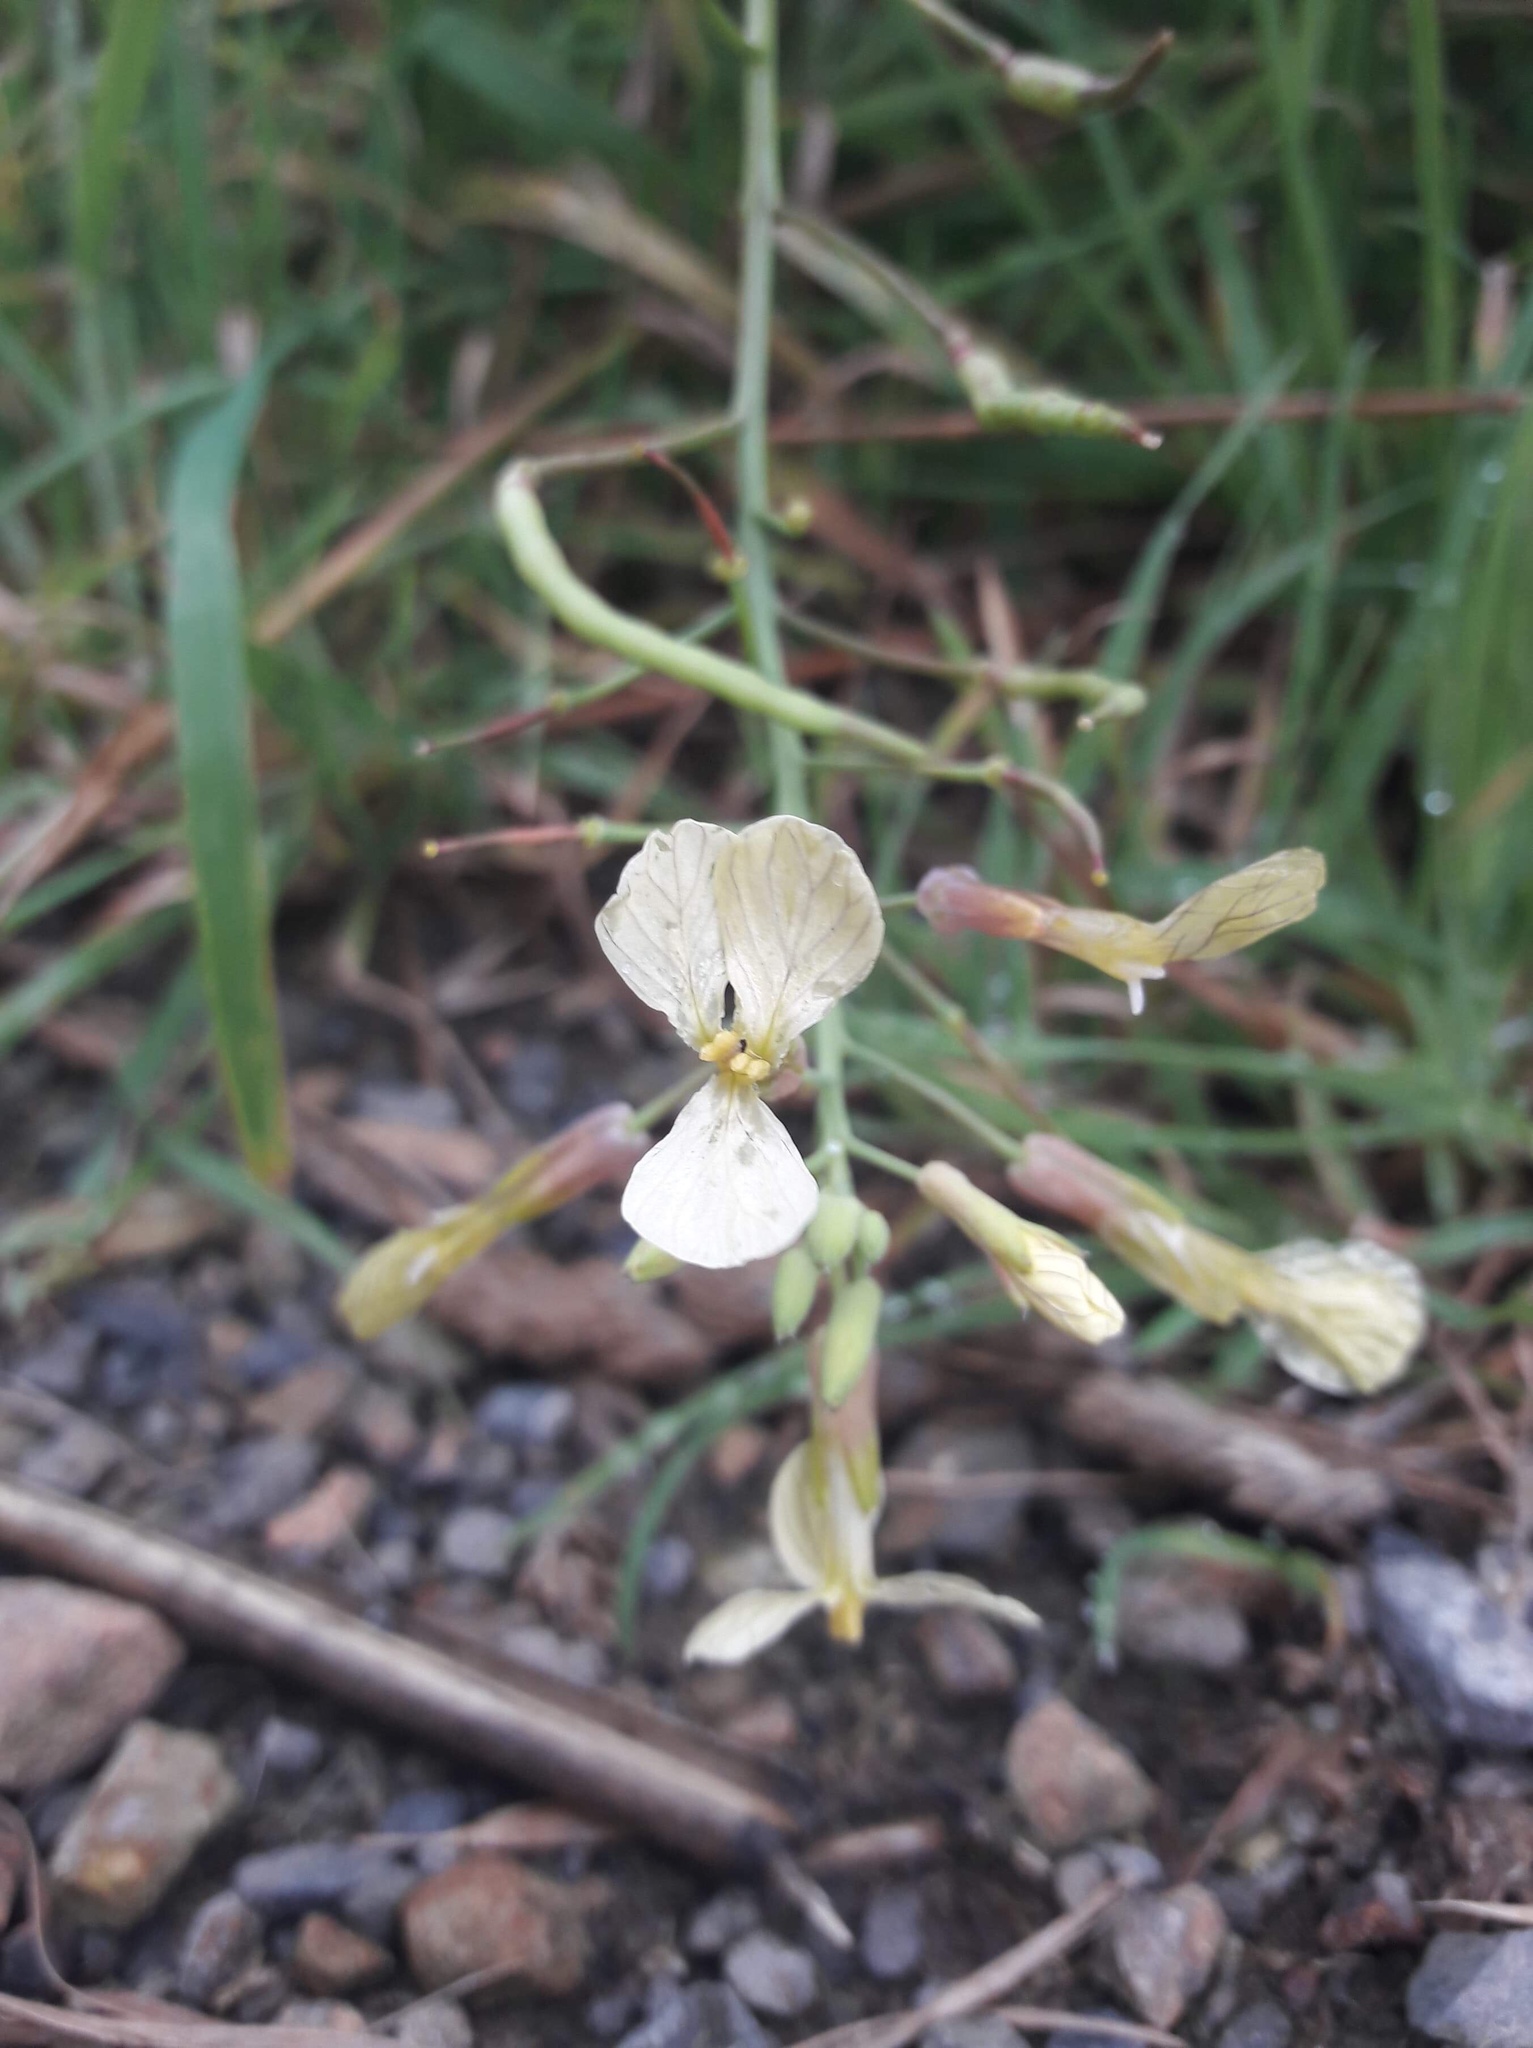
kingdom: Plantae
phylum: Tracheophyta
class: Magnoliopsida
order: Brassicales
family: Brassicaceae
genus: Raphanus
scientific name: Raphanus raphanistrum
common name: Wild radish
